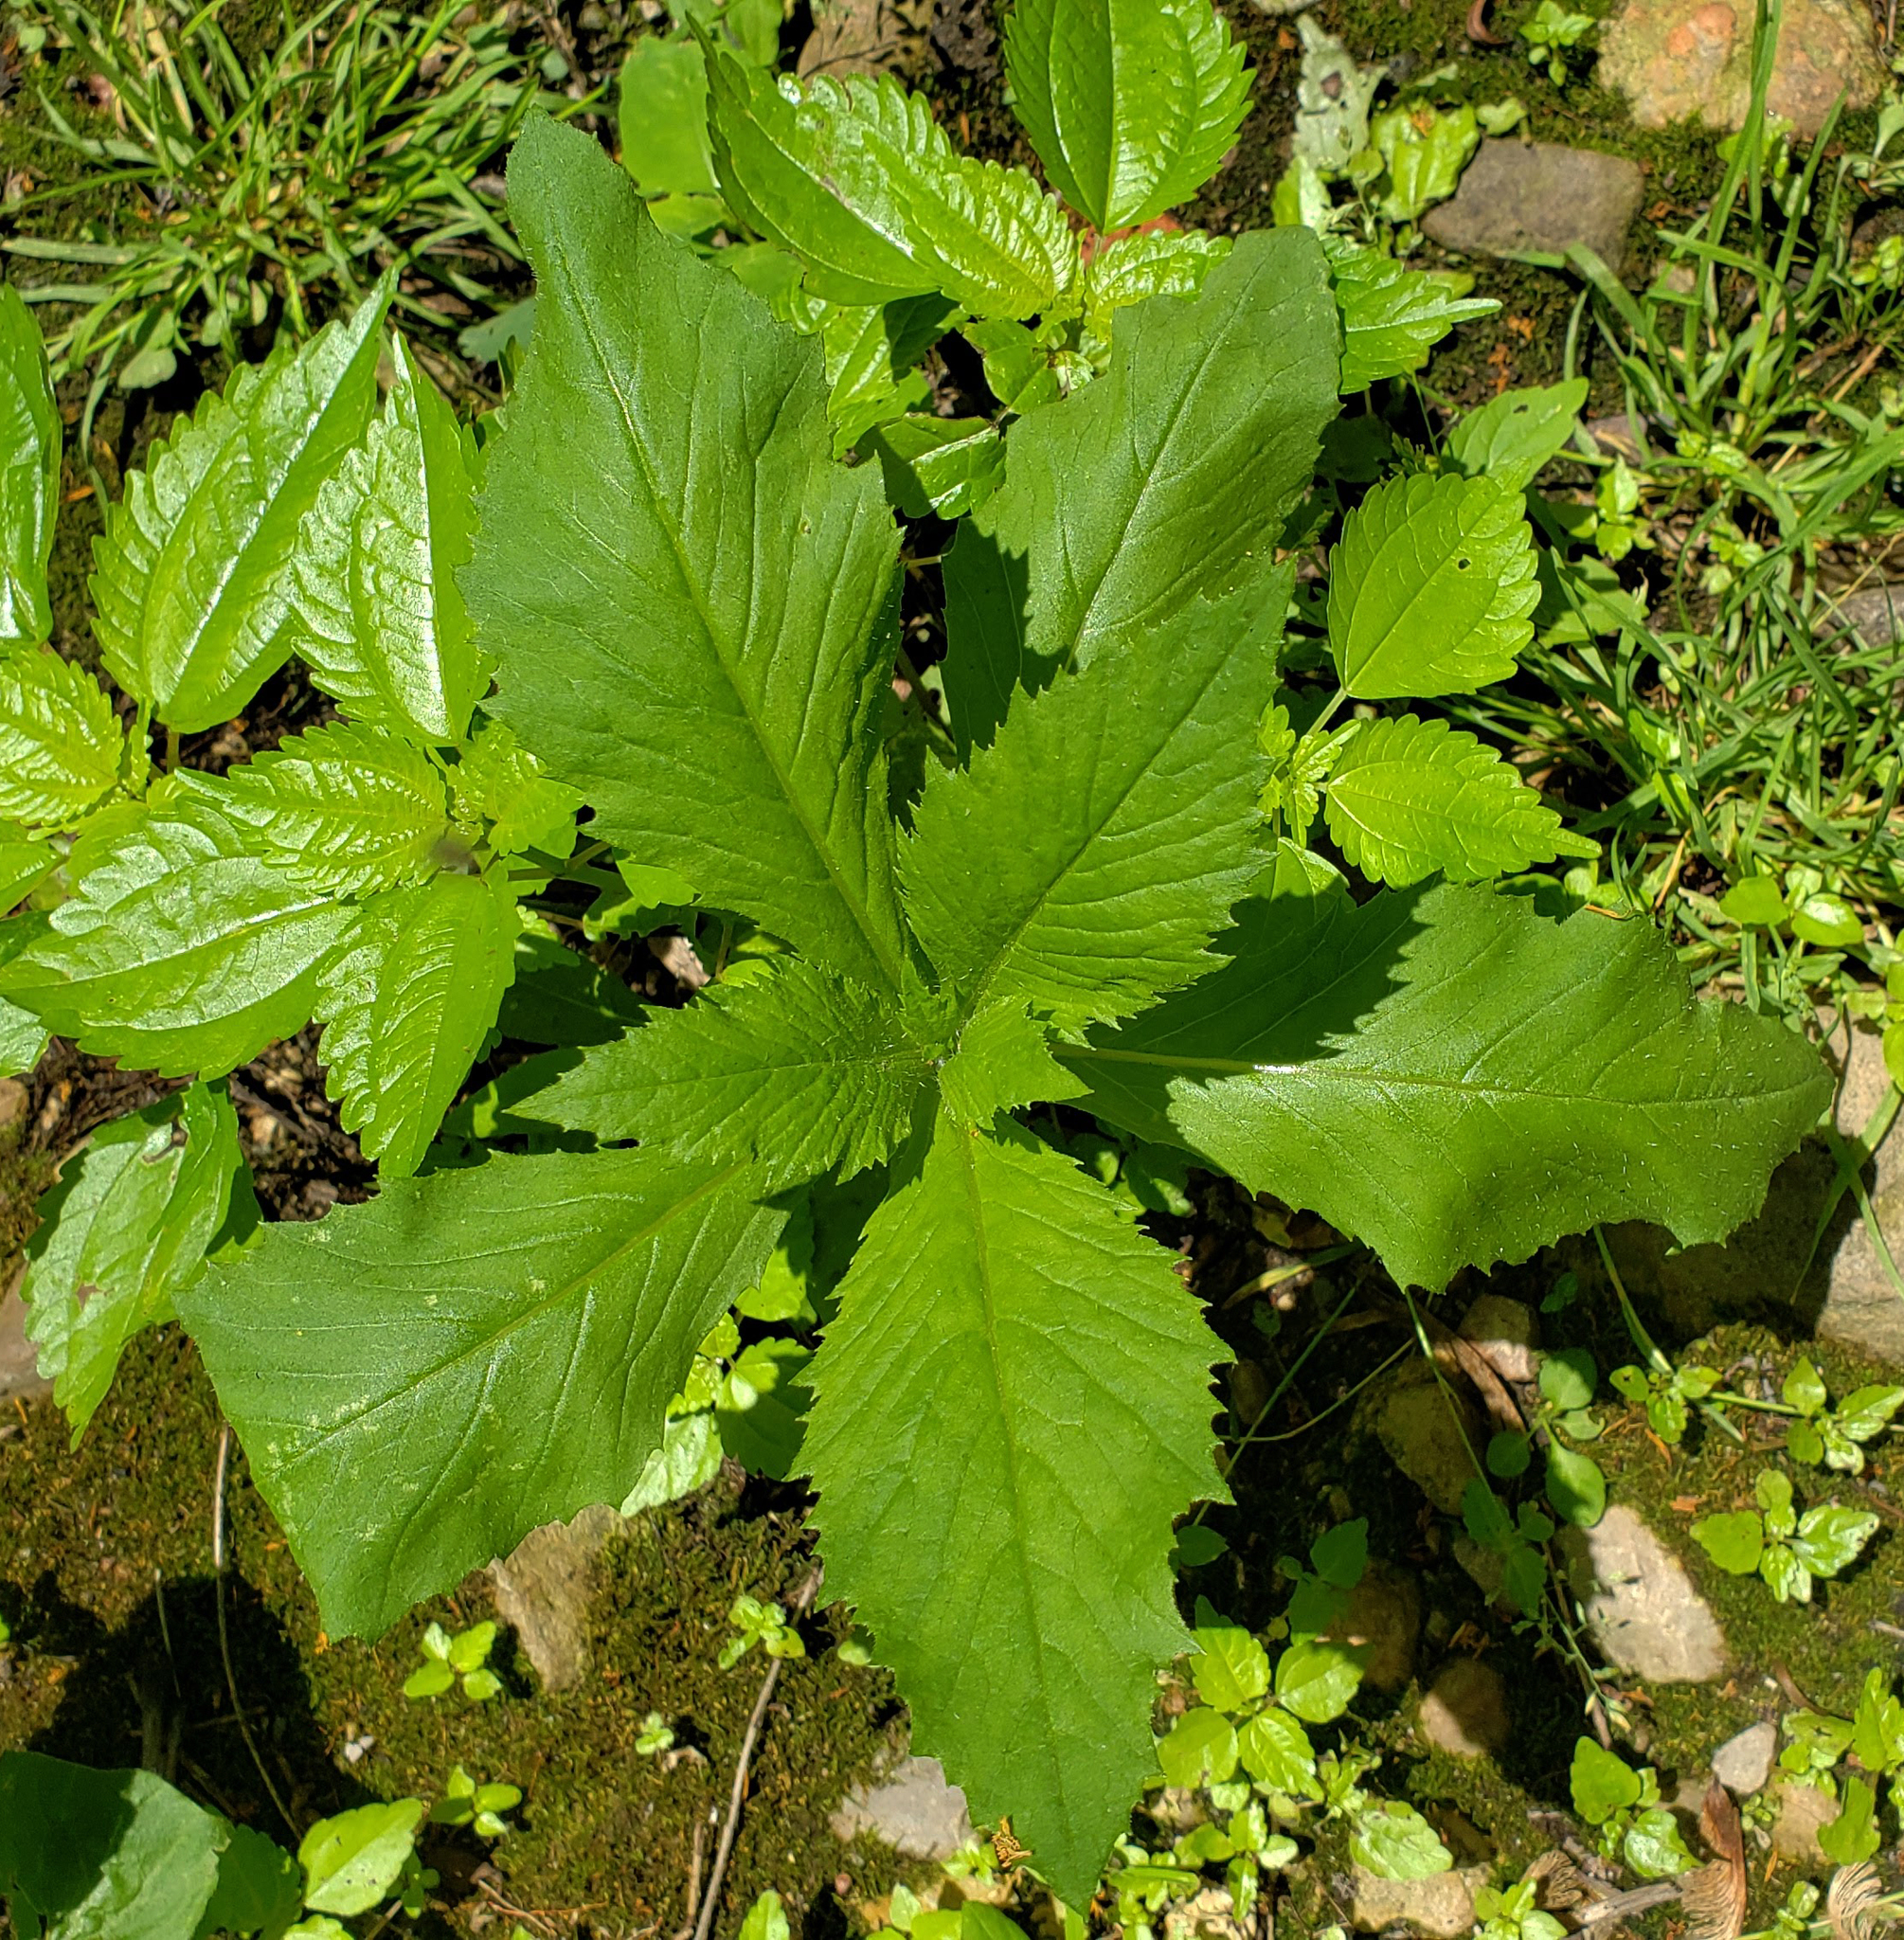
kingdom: Plantae
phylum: Tracheophyta
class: Magnoliopsida
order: Asterales
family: Asteraceae
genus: Erechtites
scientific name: Erechtites hieraciifolius
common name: American burnweed
